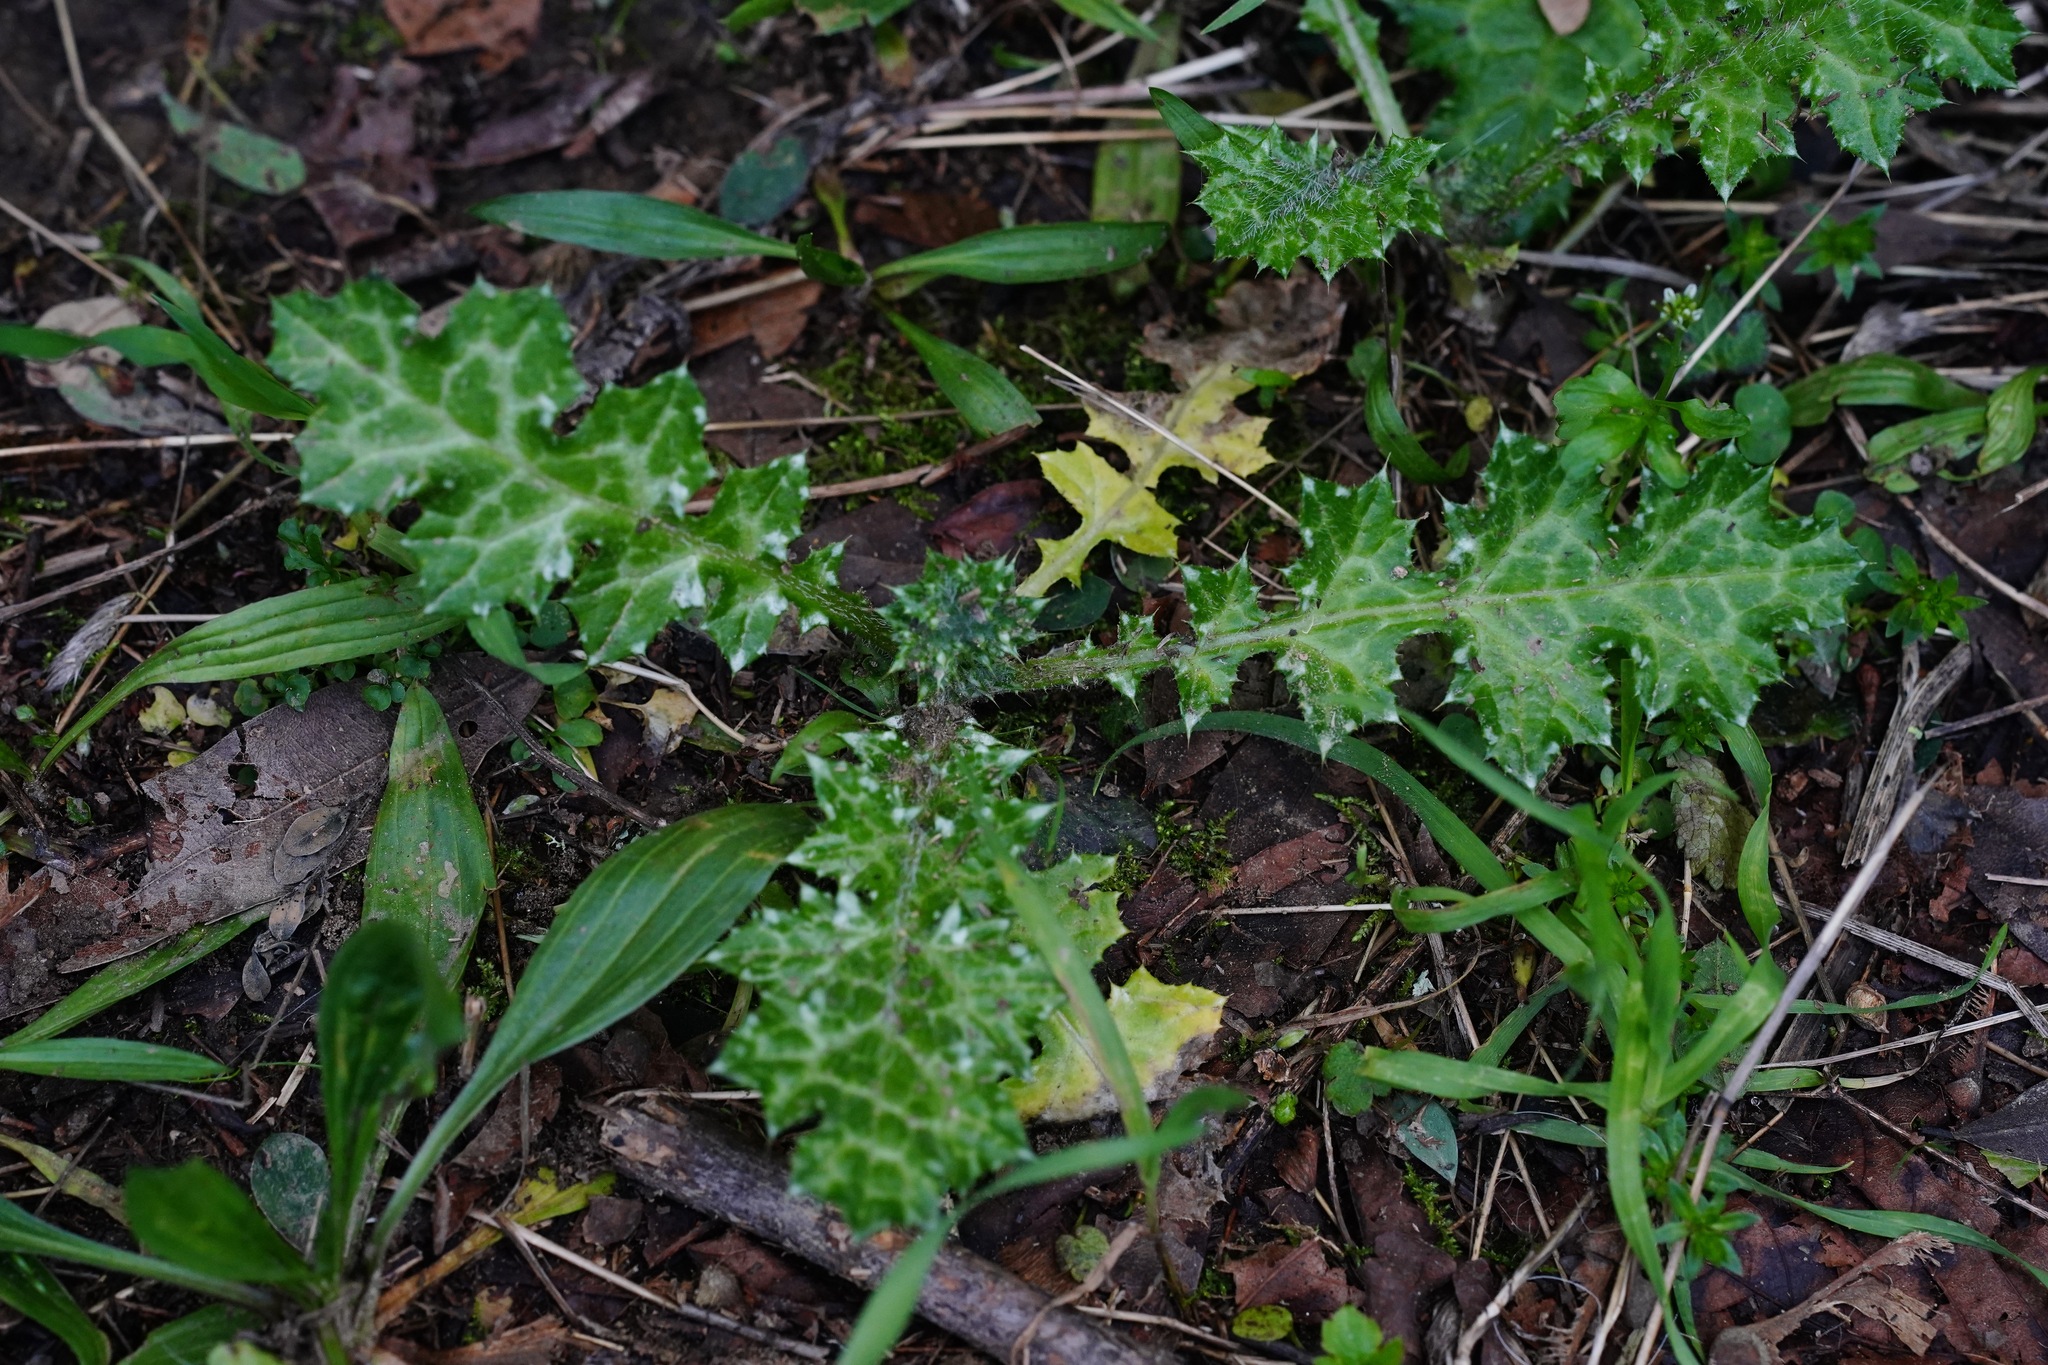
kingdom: Plantae
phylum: Tracheophyta
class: Magnoliopsida
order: Asterales
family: Asteraceae
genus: Carduus
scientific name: Carduus pycnocephalus
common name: Plymouth thistle
